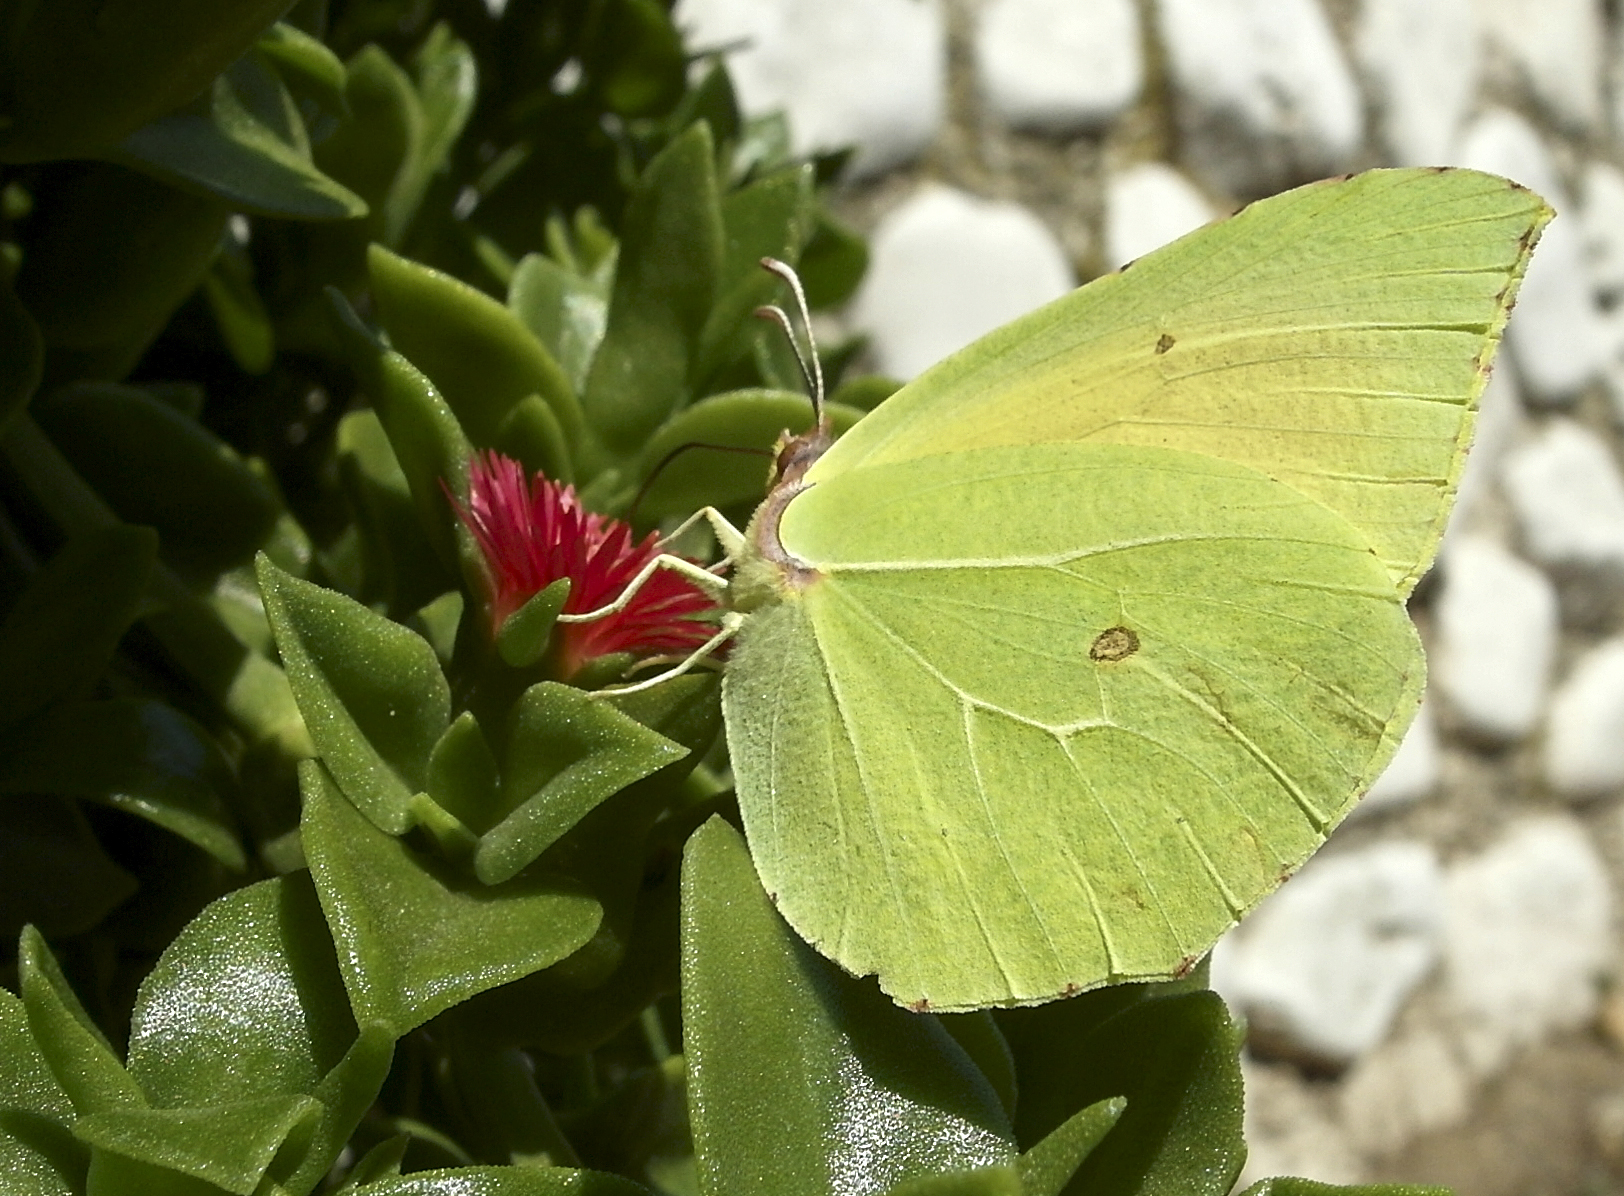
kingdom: Animalia
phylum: Arthropoda
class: Insecta
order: Lepidoptera
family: Pieridae
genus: Gonepteryx
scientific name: Gonepteryx cleopatra
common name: Cleopatra
